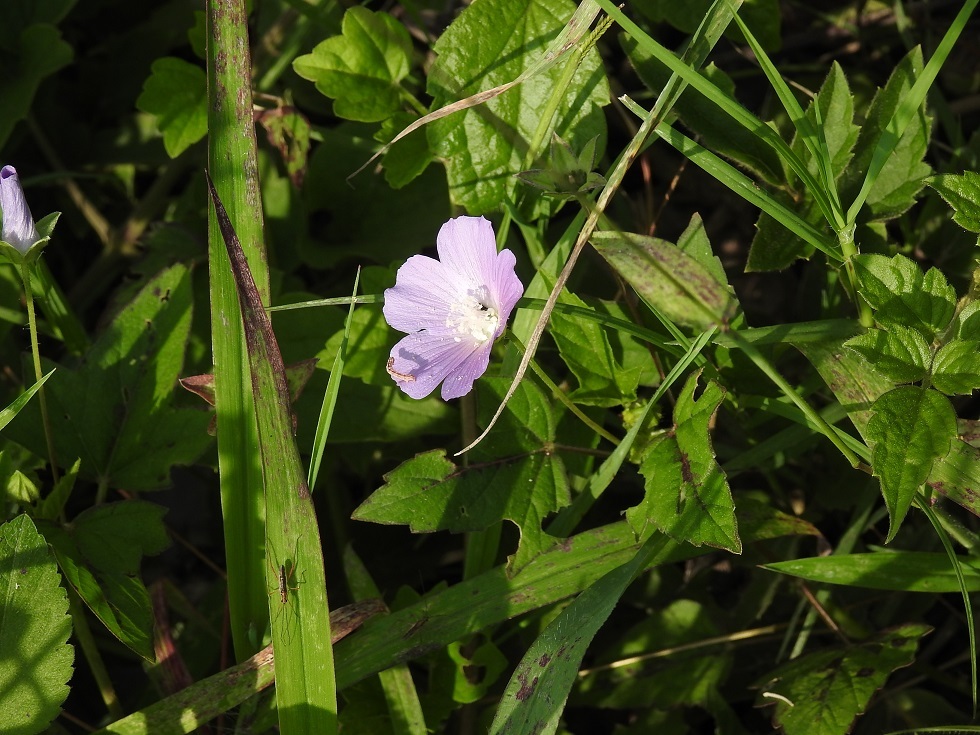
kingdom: Plantae
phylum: Tracheophyta
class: Magnoliopsida
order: Malvales
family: Malvaceae
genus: Anoda
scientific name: Anoda acerifolia
